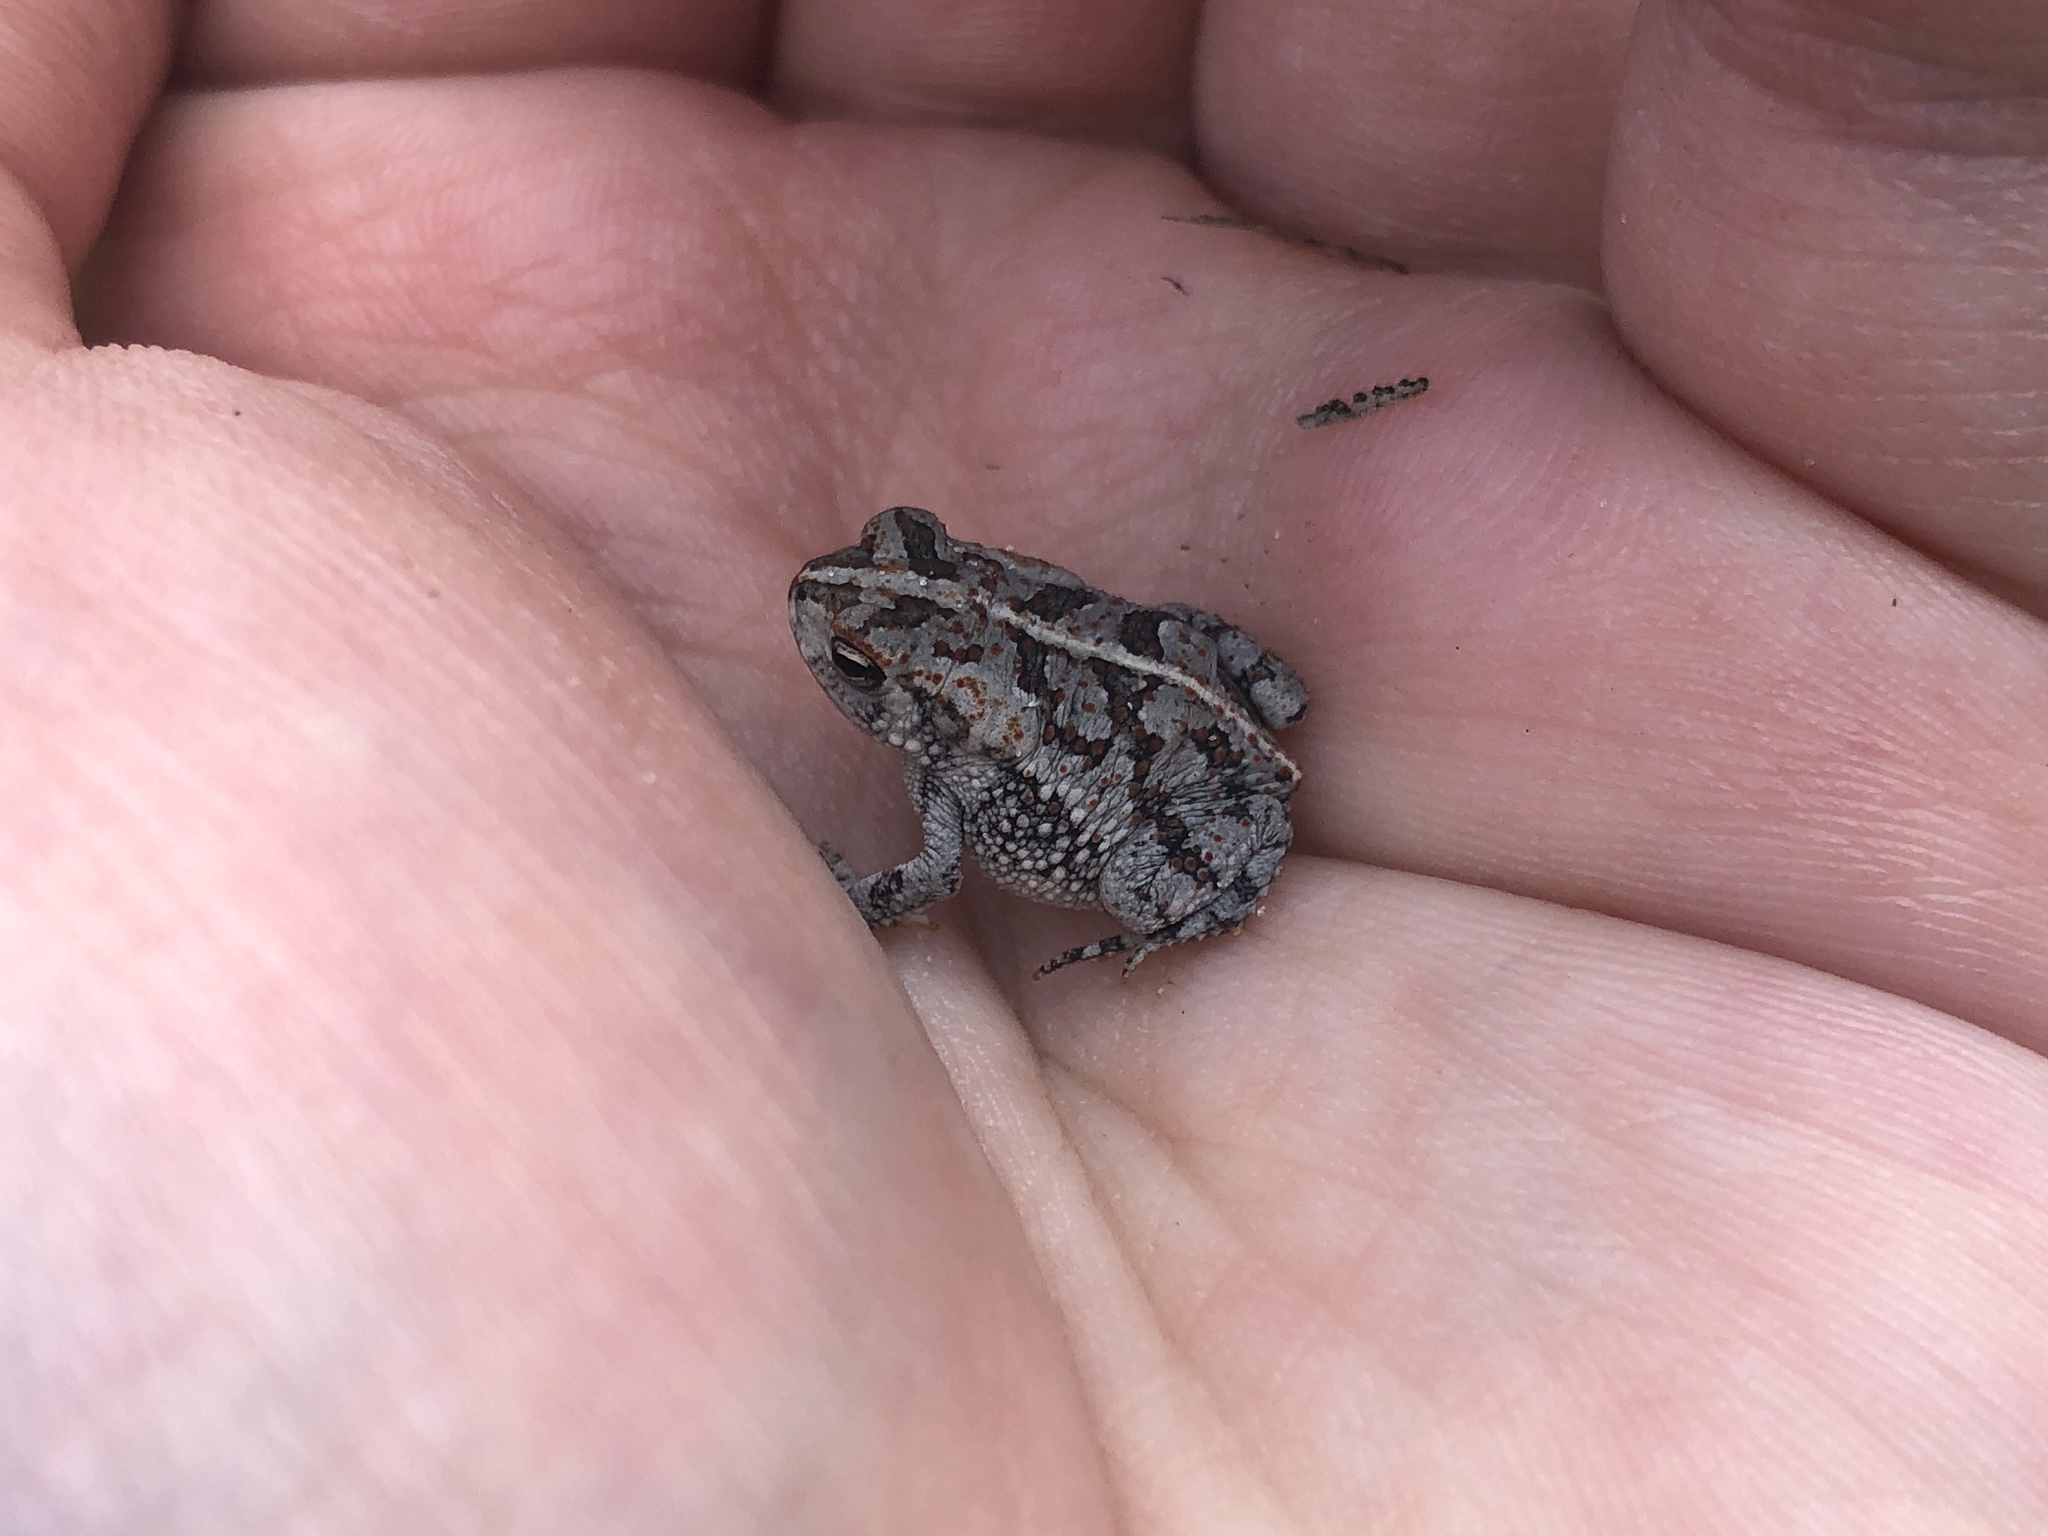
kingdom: Animalia
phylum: Chordata
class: Amphibia
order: Anura
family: Bufonidae
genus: Anaxyrus
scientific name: Anaxyrus quercicus
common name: Oak toad
